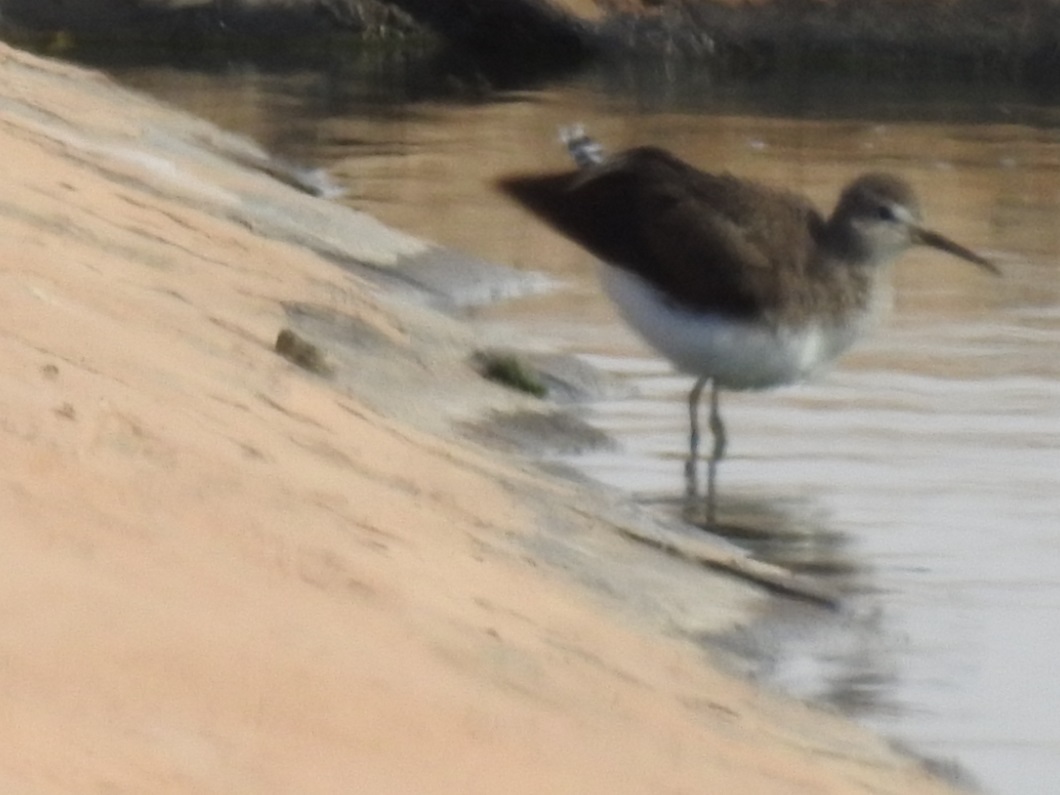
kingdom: Animalia
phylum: Chordata
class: Aves
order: Charadriiformes
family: Scolopacidae
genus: Tringa
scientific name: Tringa ochropus
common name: Green sandpiper
